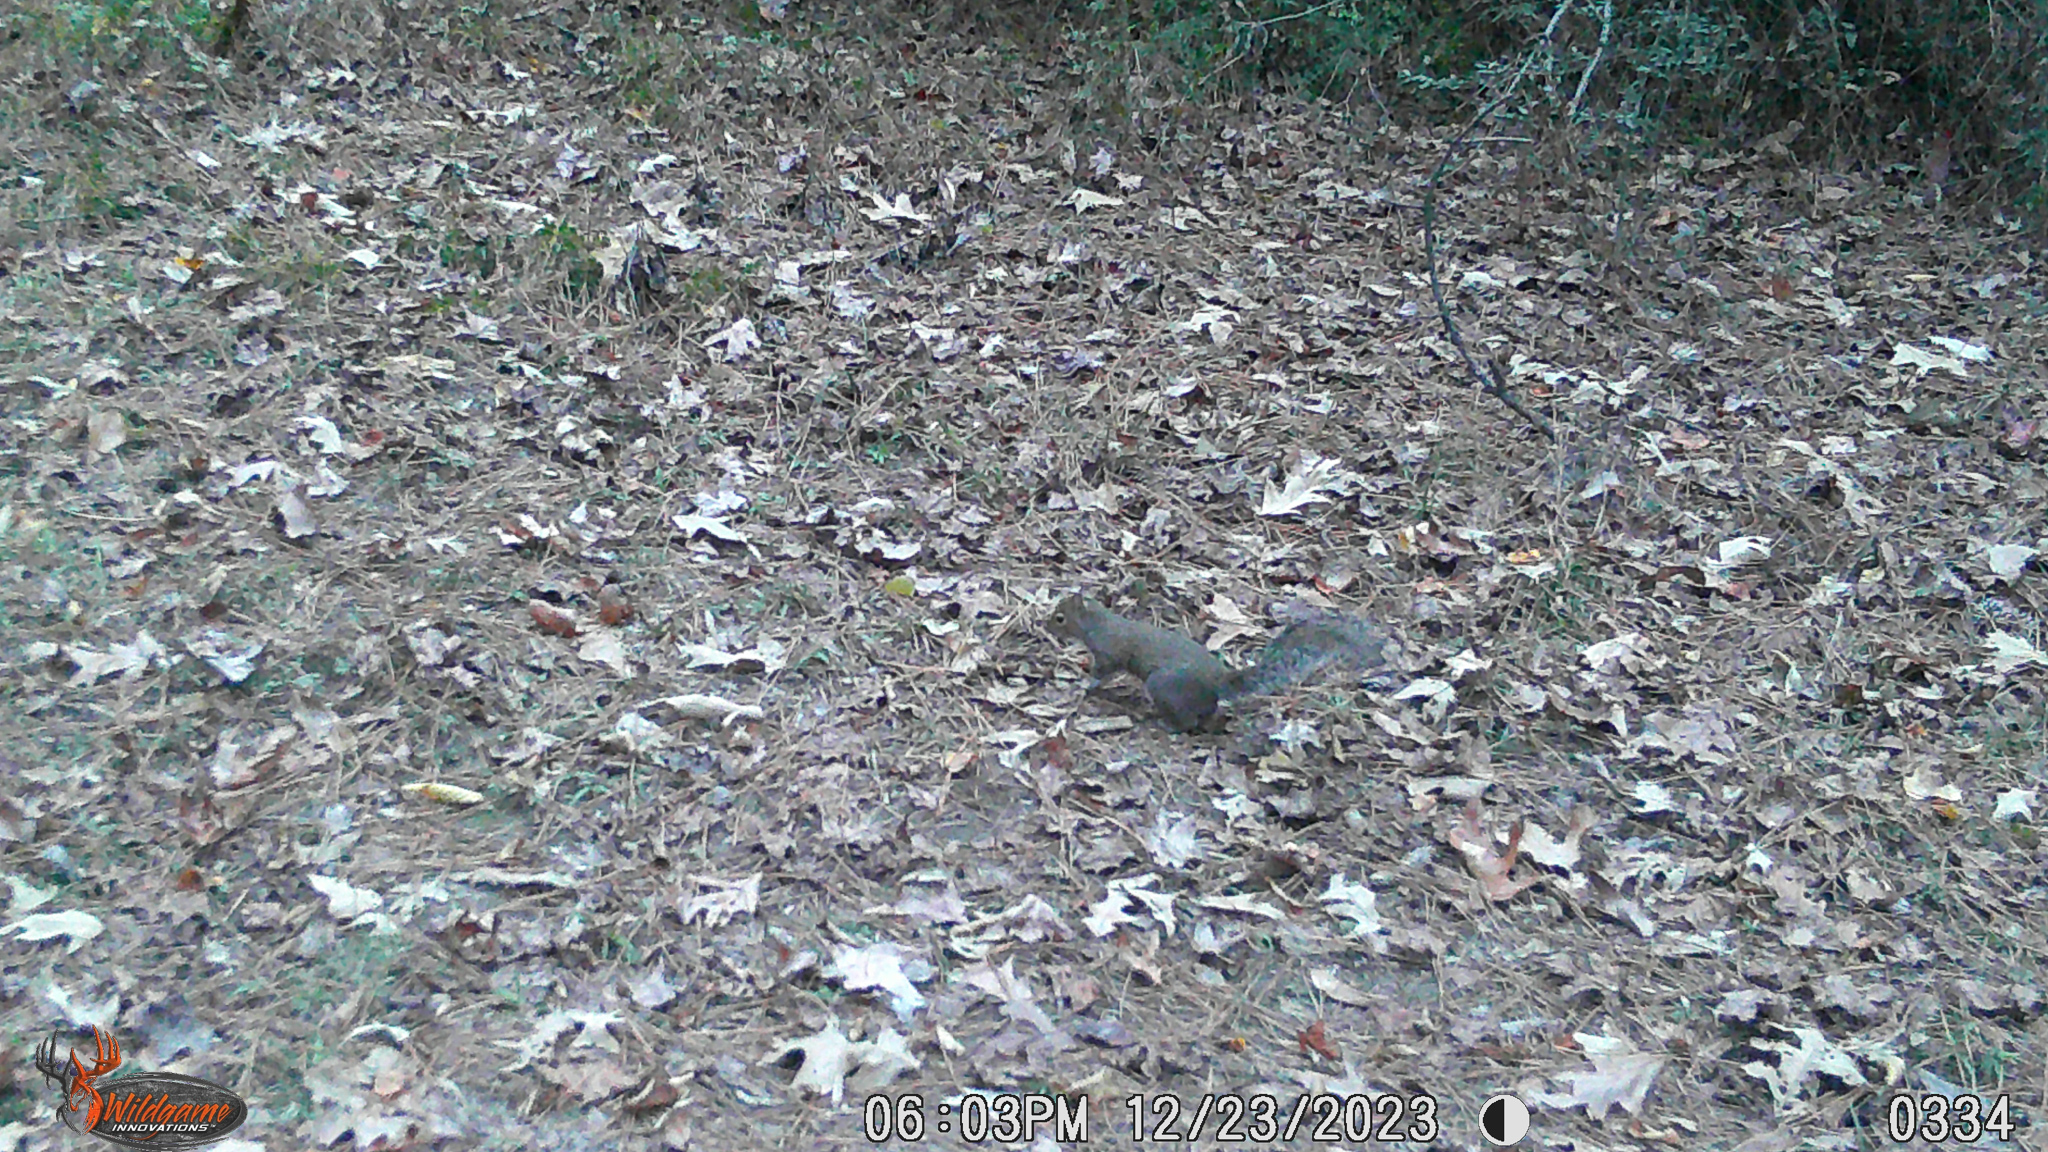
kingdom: Animalia
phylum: Chordata
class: Mammalia
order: Rodentia
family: Sciuridae
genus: Sciurus
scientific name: Sciurus carolinensis
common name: Eastern gray squirrel
